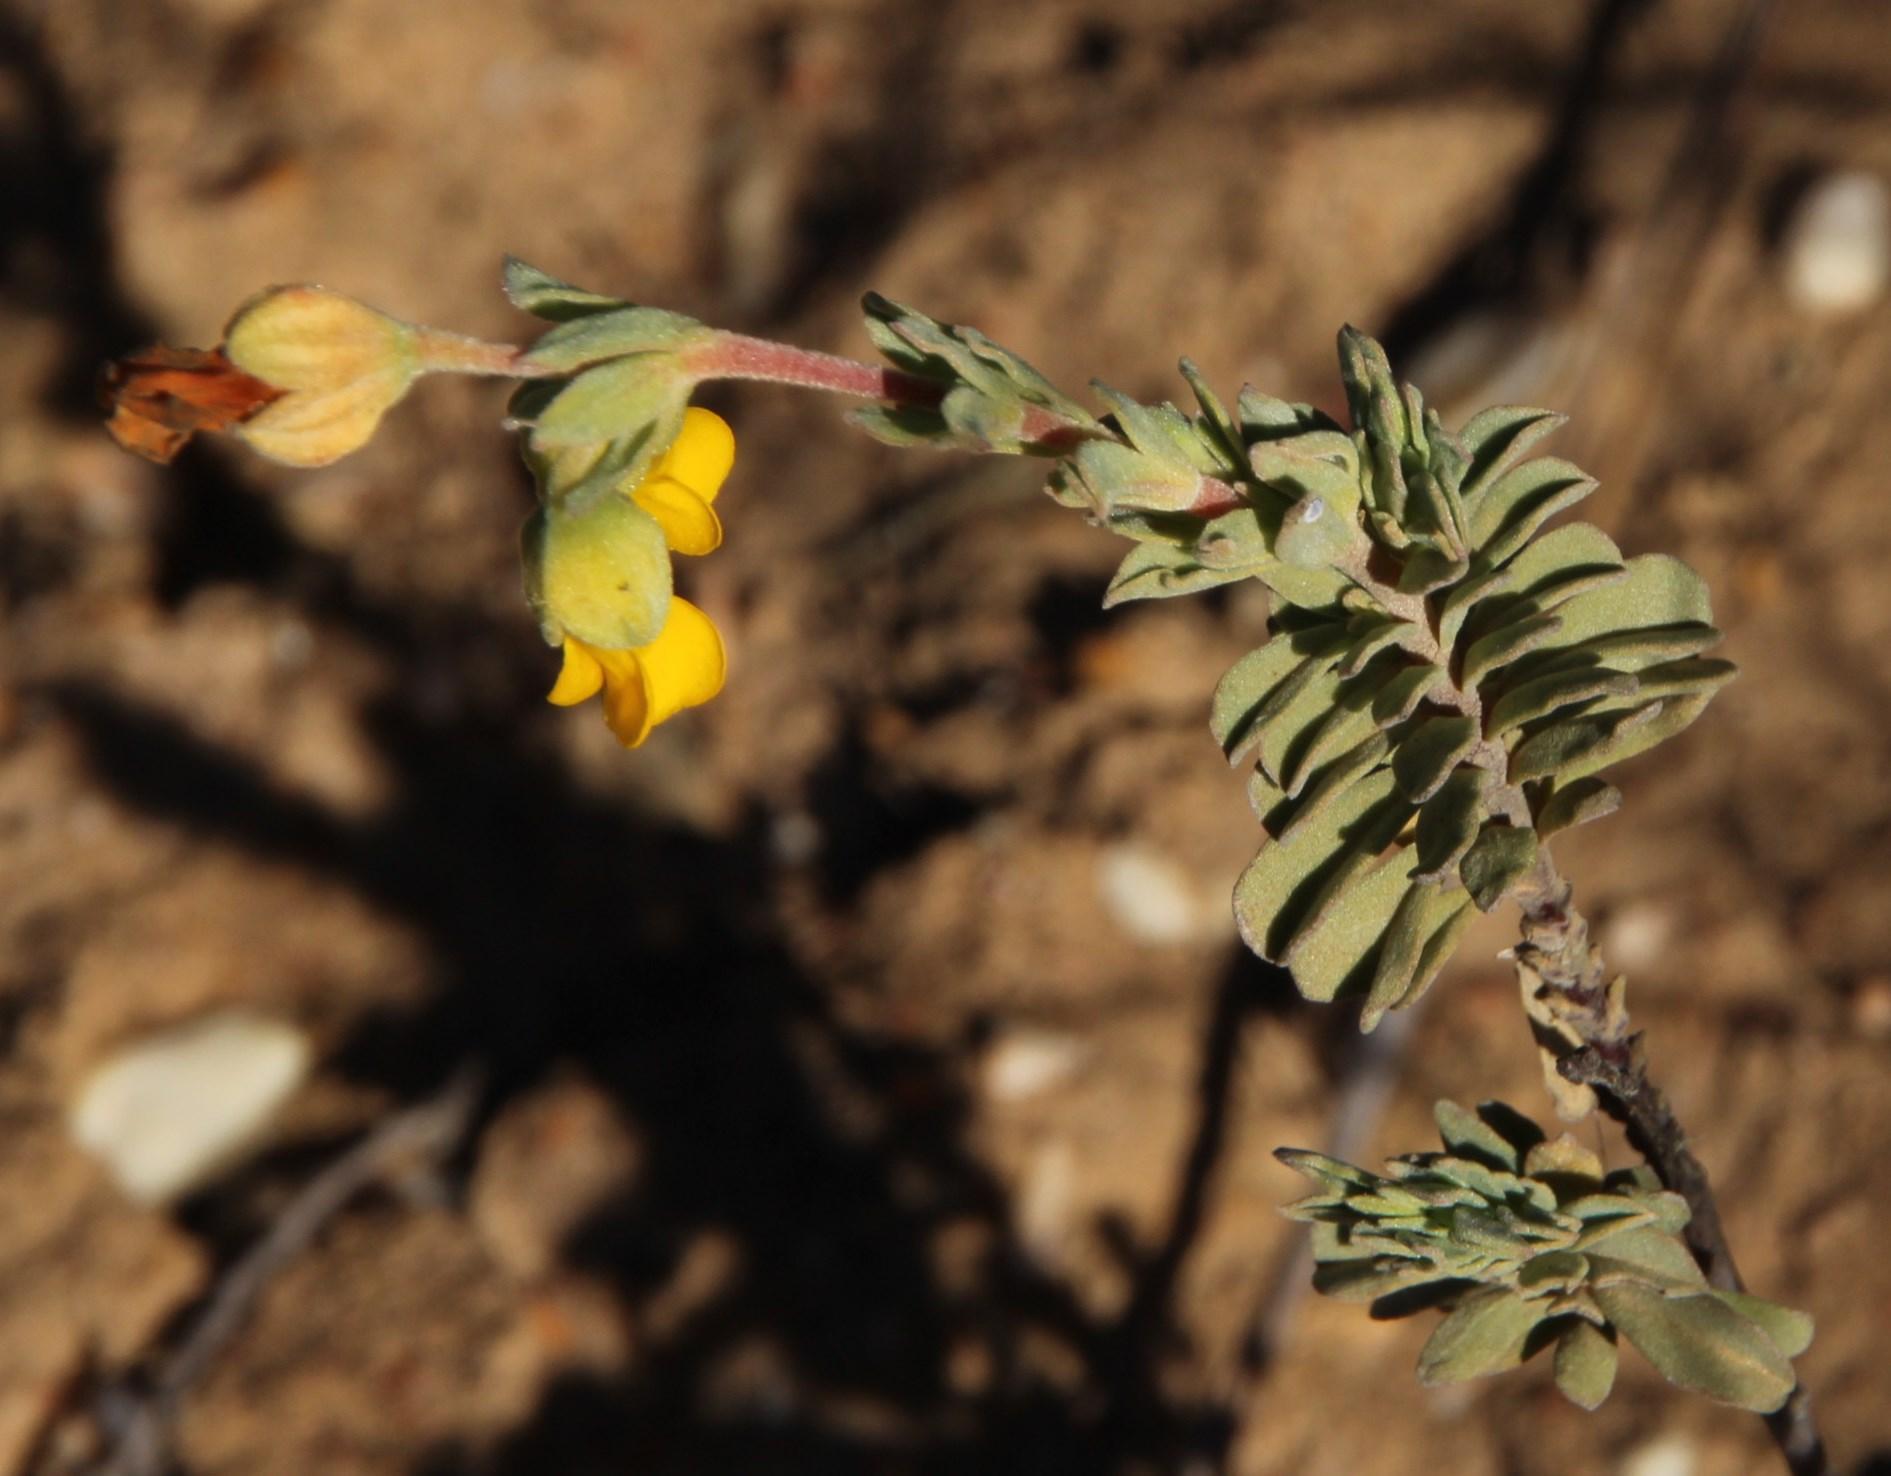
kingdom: Plantae
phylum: Tracheophyta
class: Magnoliopsida
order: Malvales
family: Malvaceae
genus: Hermannia
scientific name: Hermannia trifoliata
